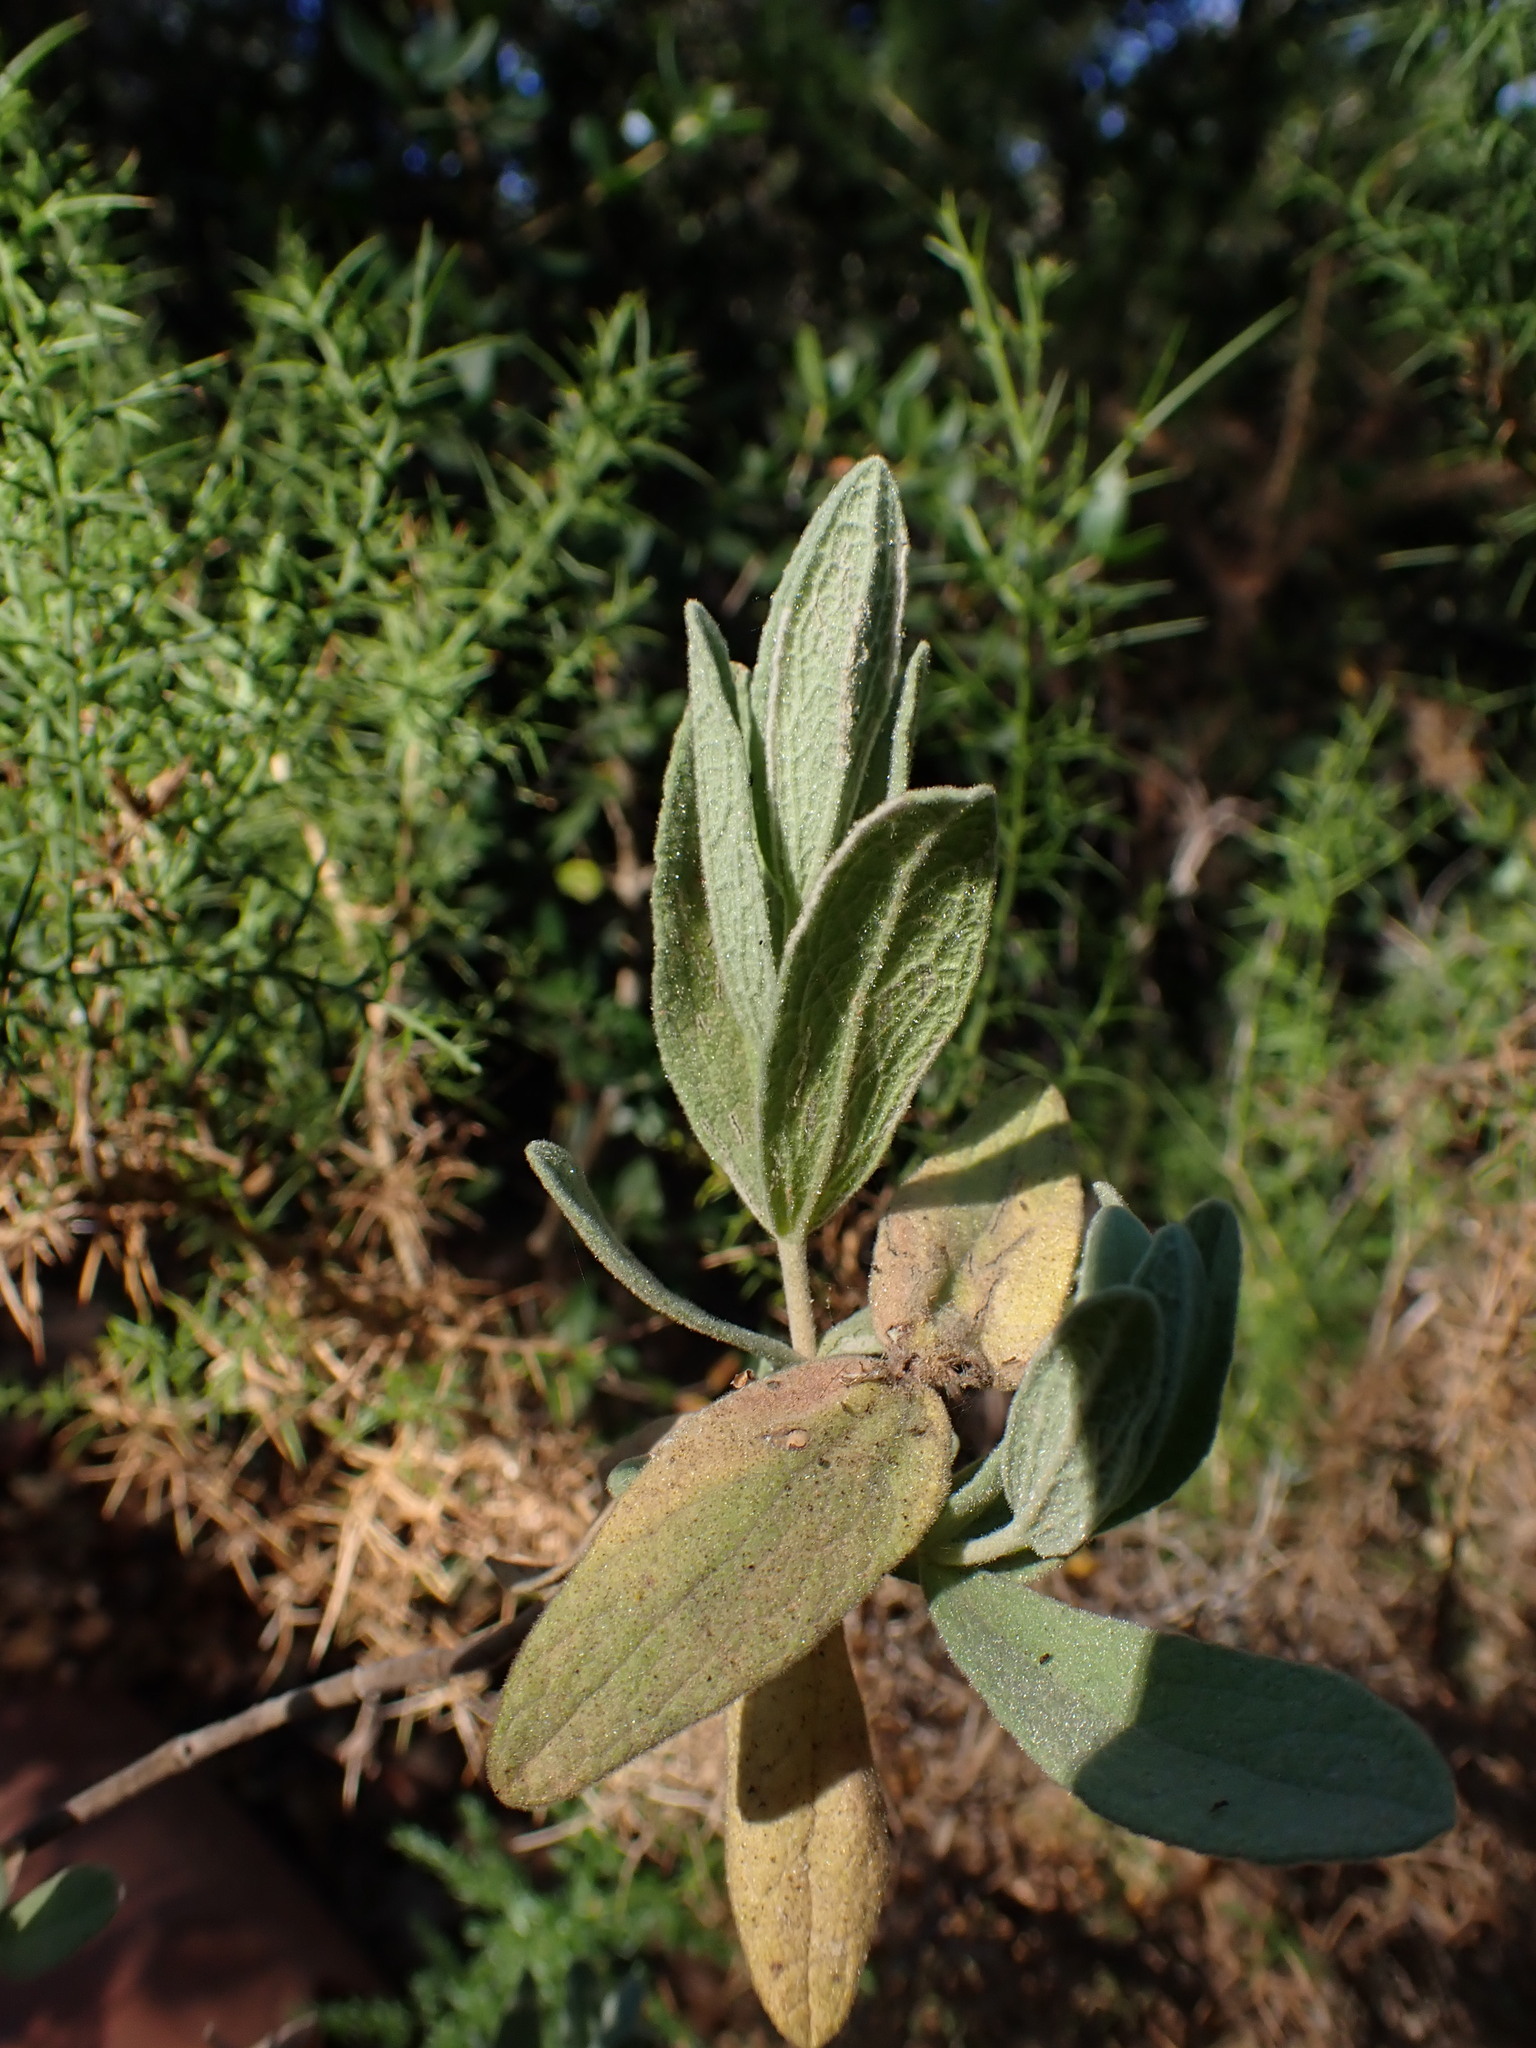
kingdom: Plantae
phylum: Tracheophyta
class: Magnoliopsida
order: Malvales
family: Cistaceae
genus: Cistus
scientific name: Cistus albidus
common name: White-leaf rock-rose
